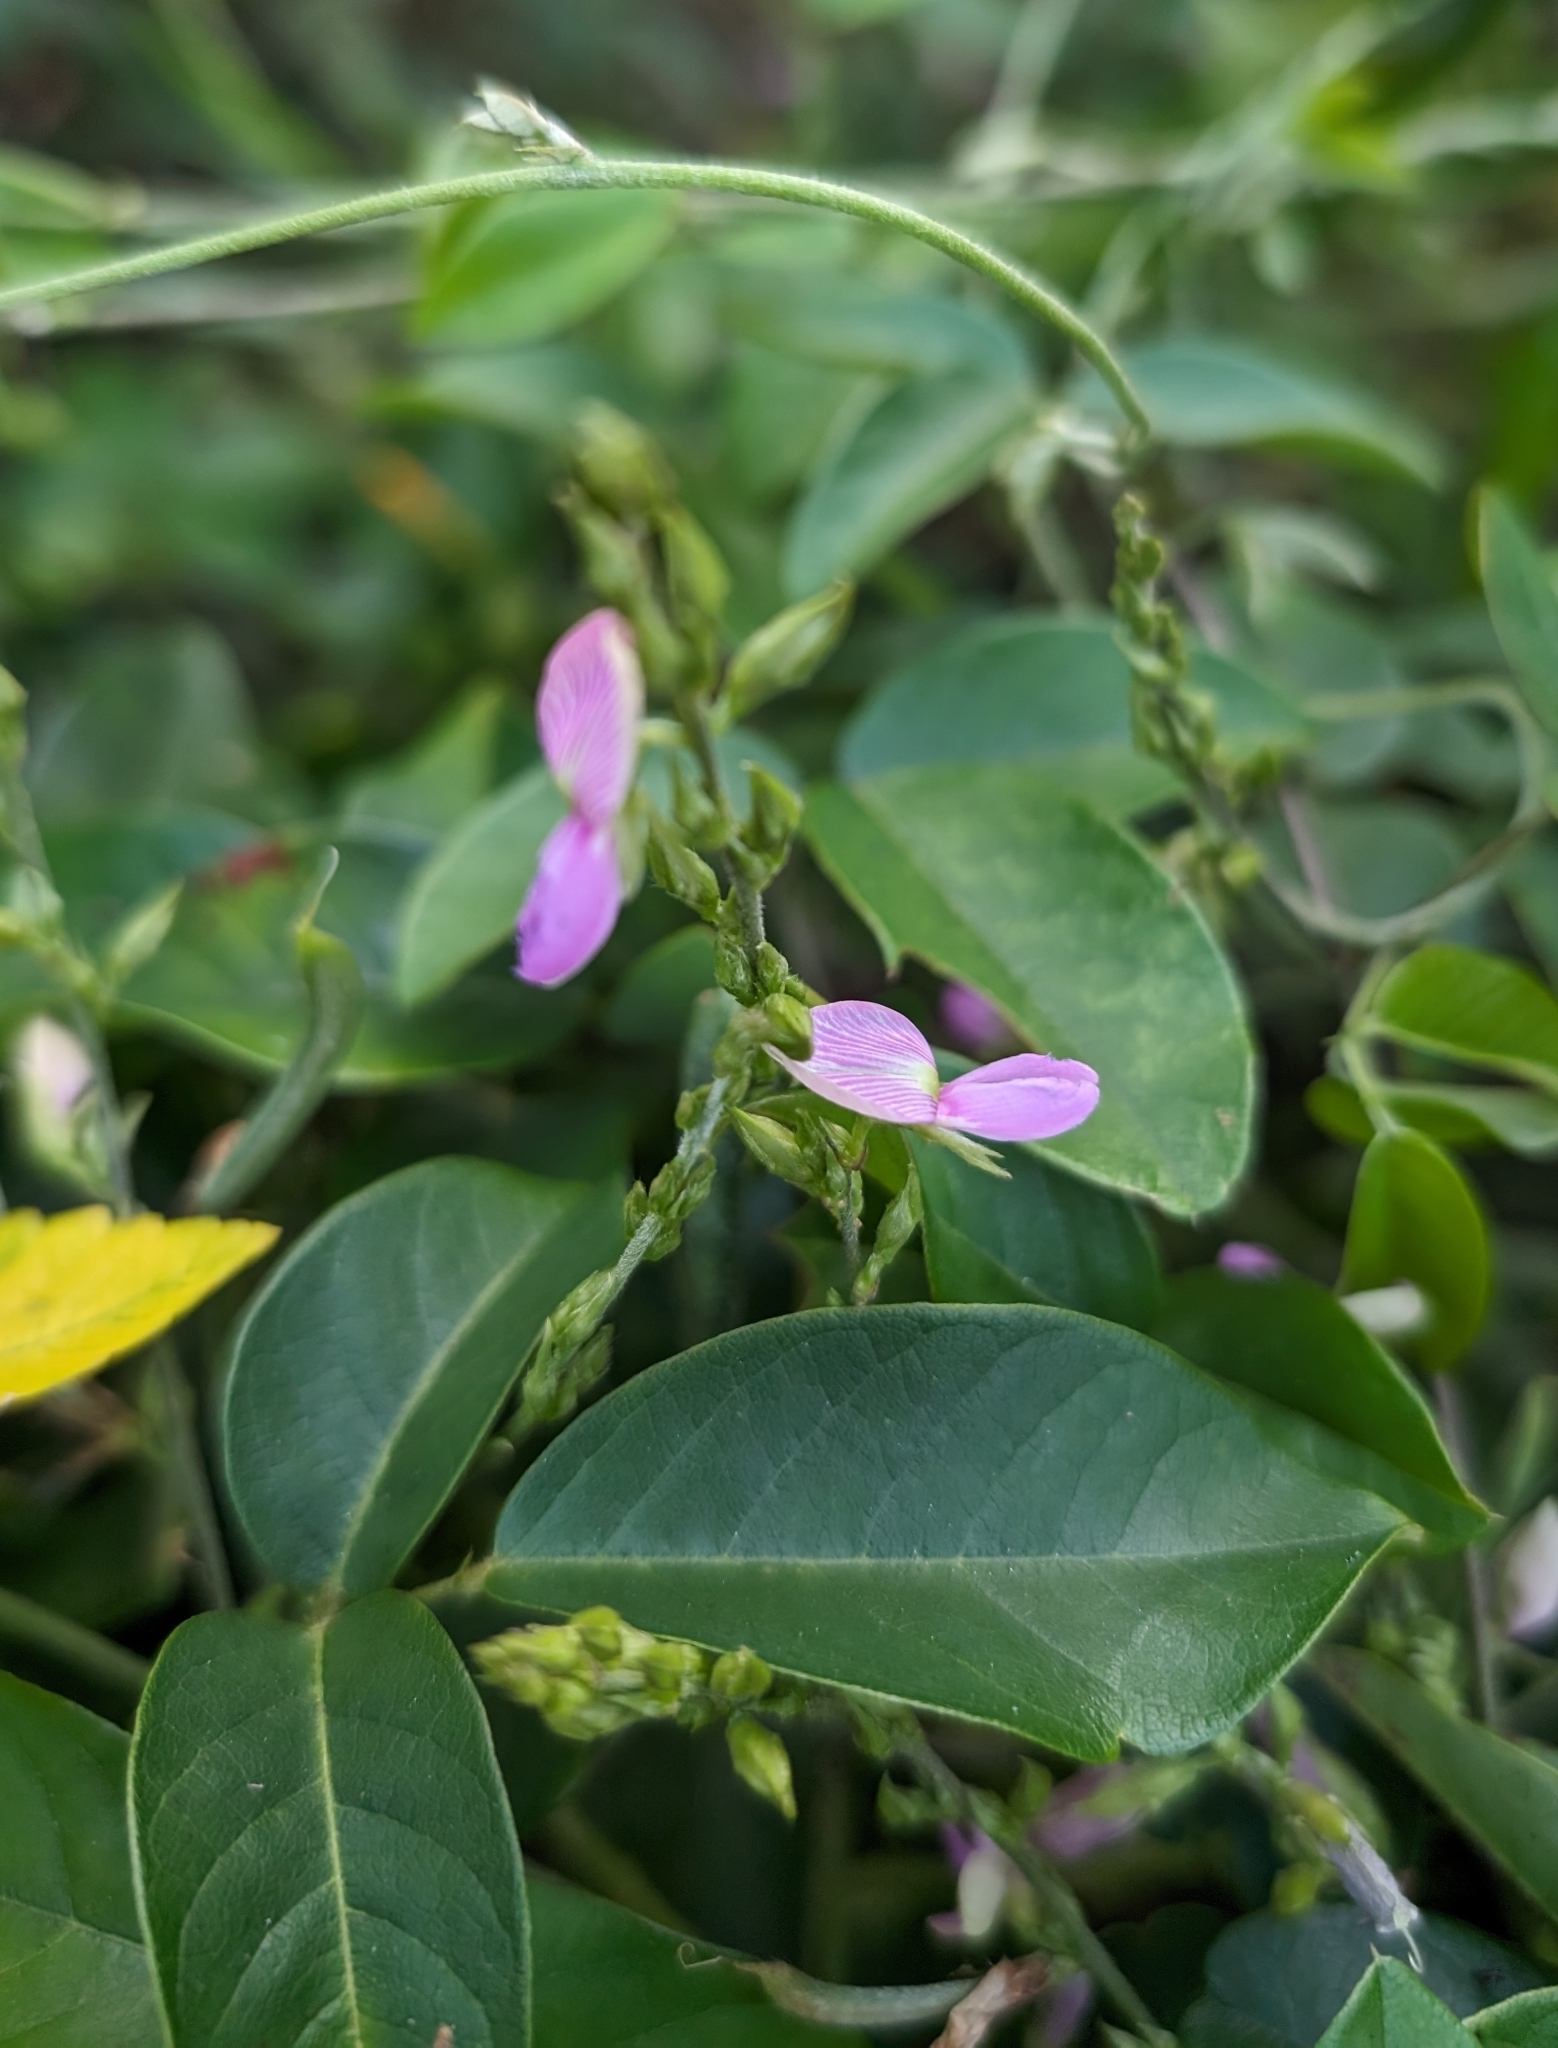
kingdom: Plantae
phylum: Tracheophyta
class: Magnoliopsida
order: Fabales
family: Fabaceae
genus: Galactia
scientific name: Galactia striata
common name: Florida hammock milkpea
